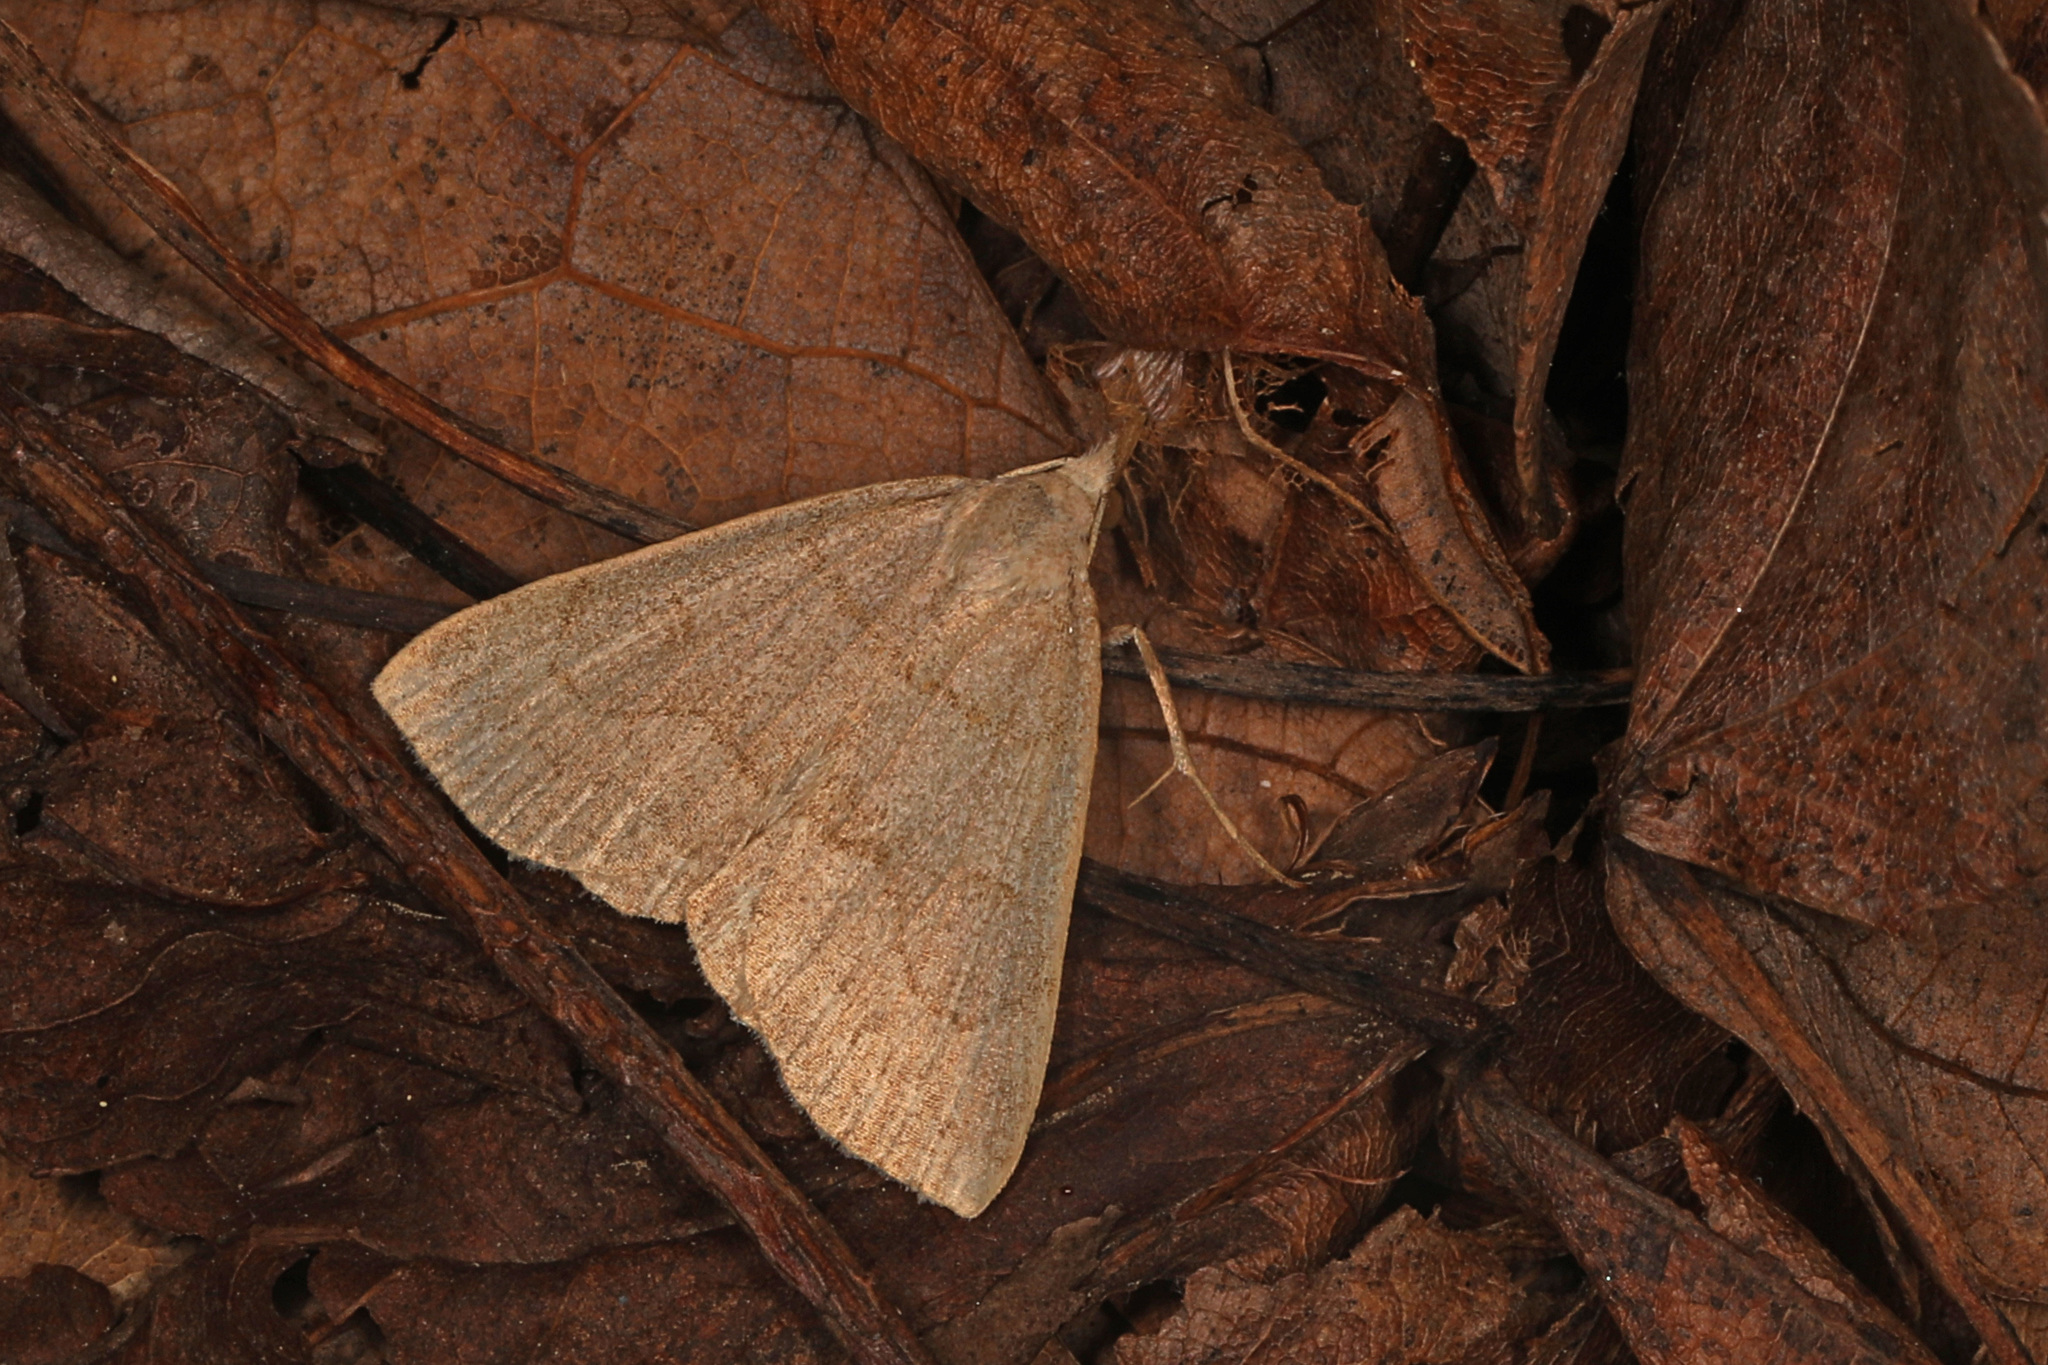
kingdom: Animalia
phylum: Arthropoda
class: Insecta
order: Lepidoptera
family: Erebidae
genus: Macrochilo
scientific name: Macrochilo morbidalis
